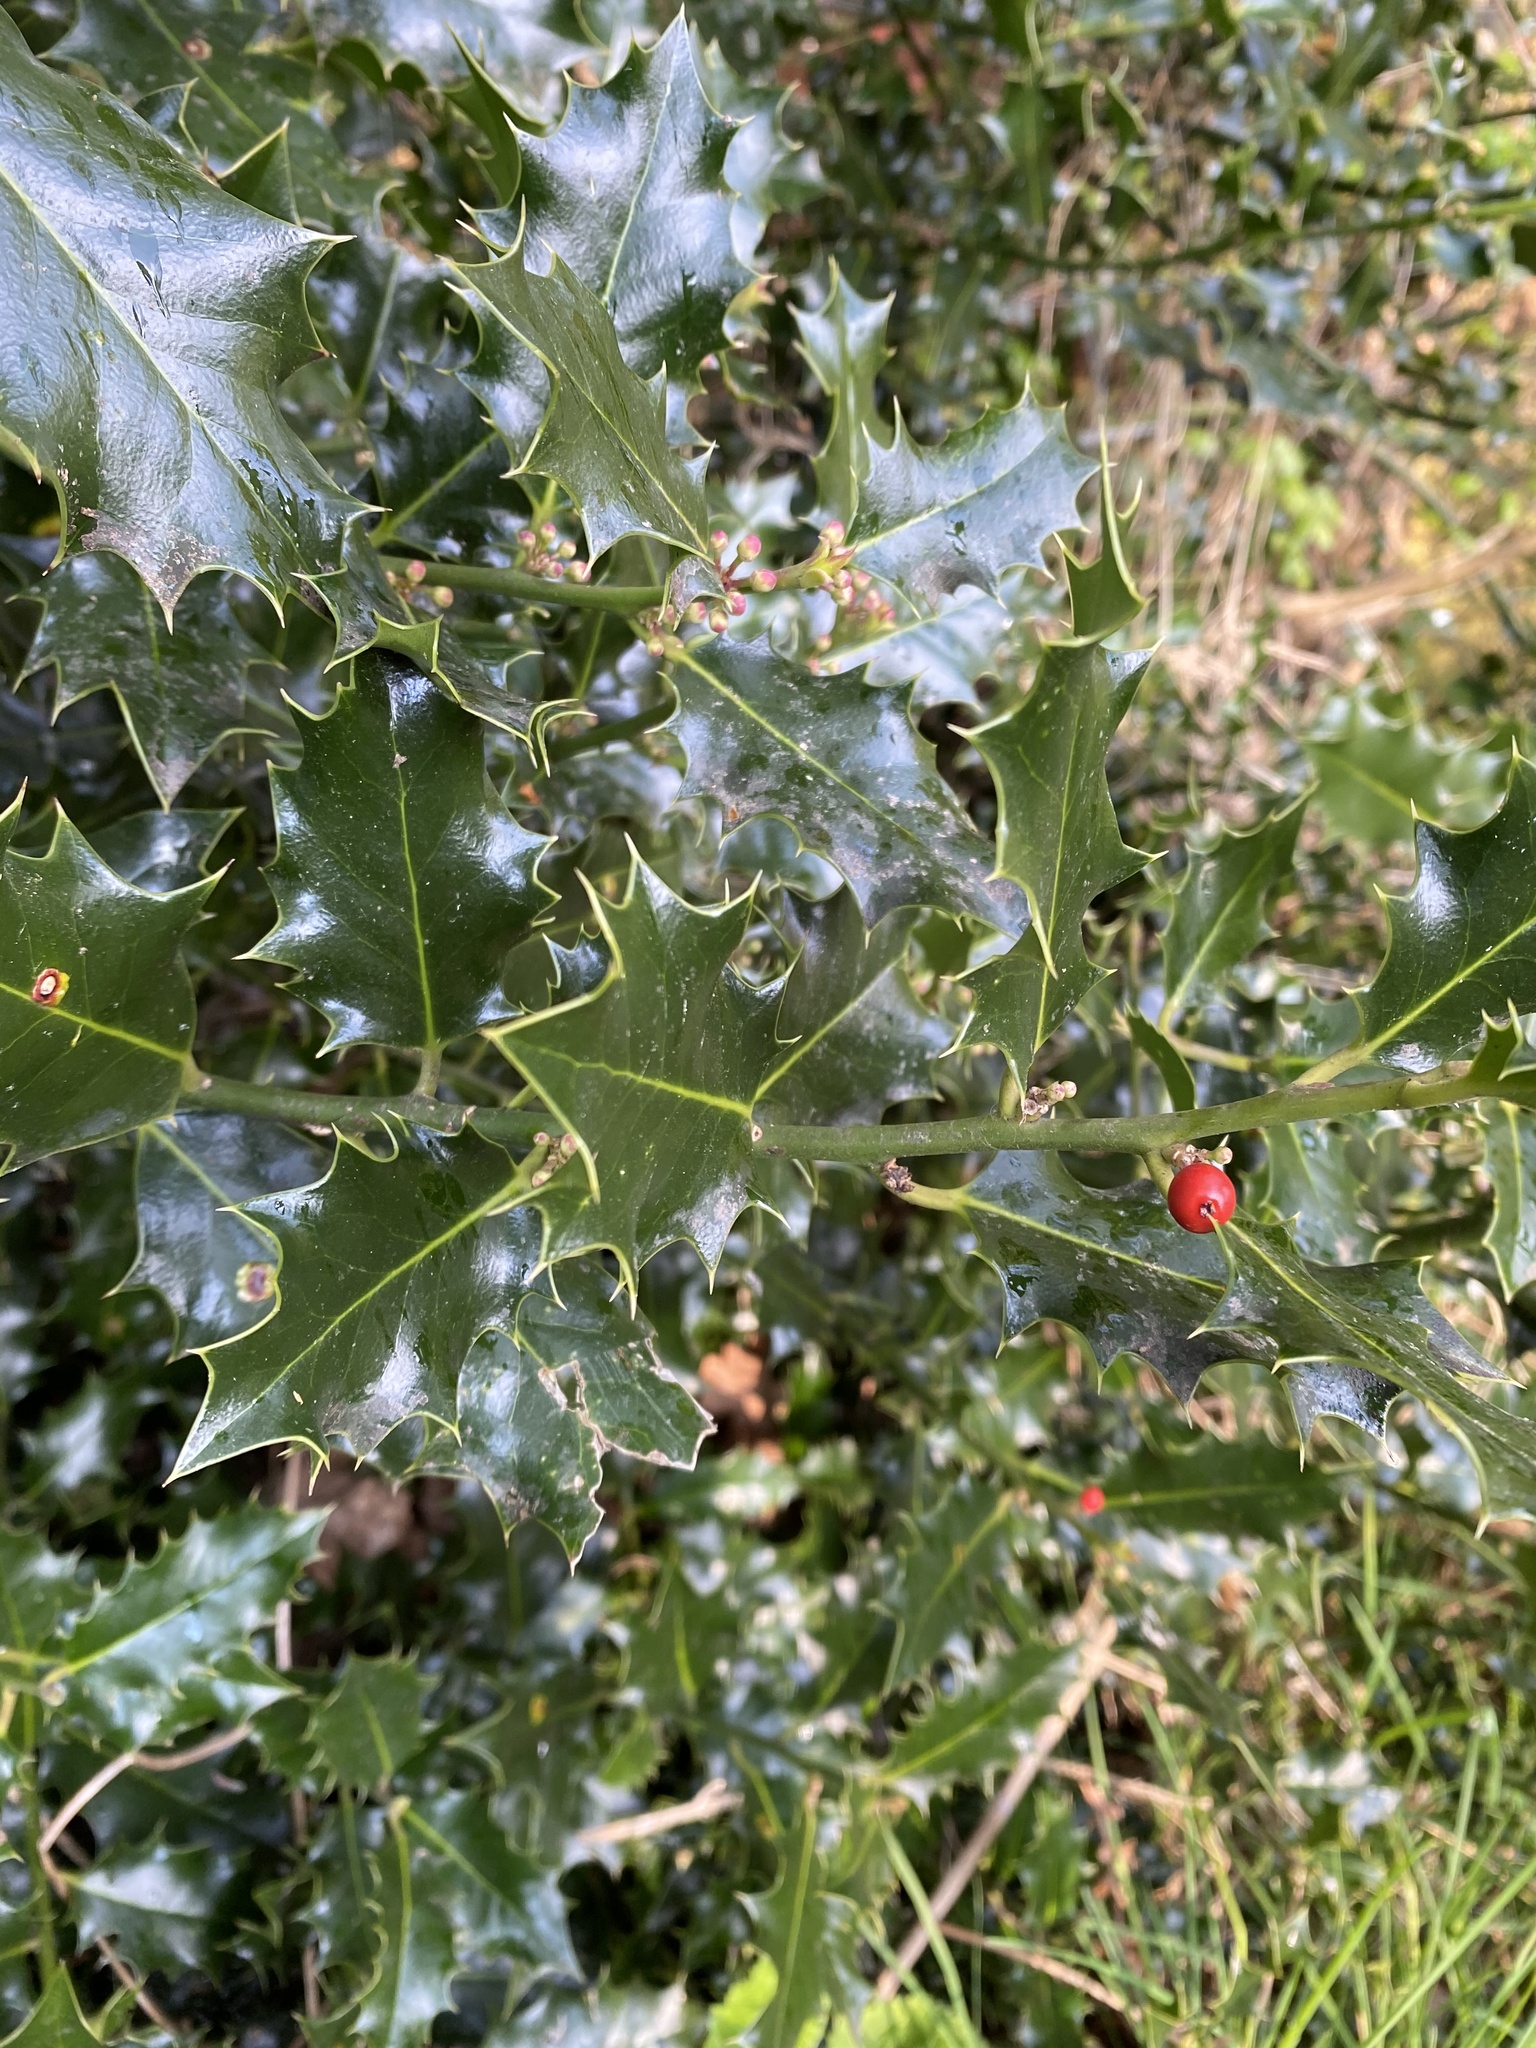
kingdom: Plantae
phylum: Tracheophyta
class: Magnoliopsida
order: Aquifoliales
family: Aquifoliaceae
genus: Ilex
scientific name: Ilex aquifolium
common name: English holly
